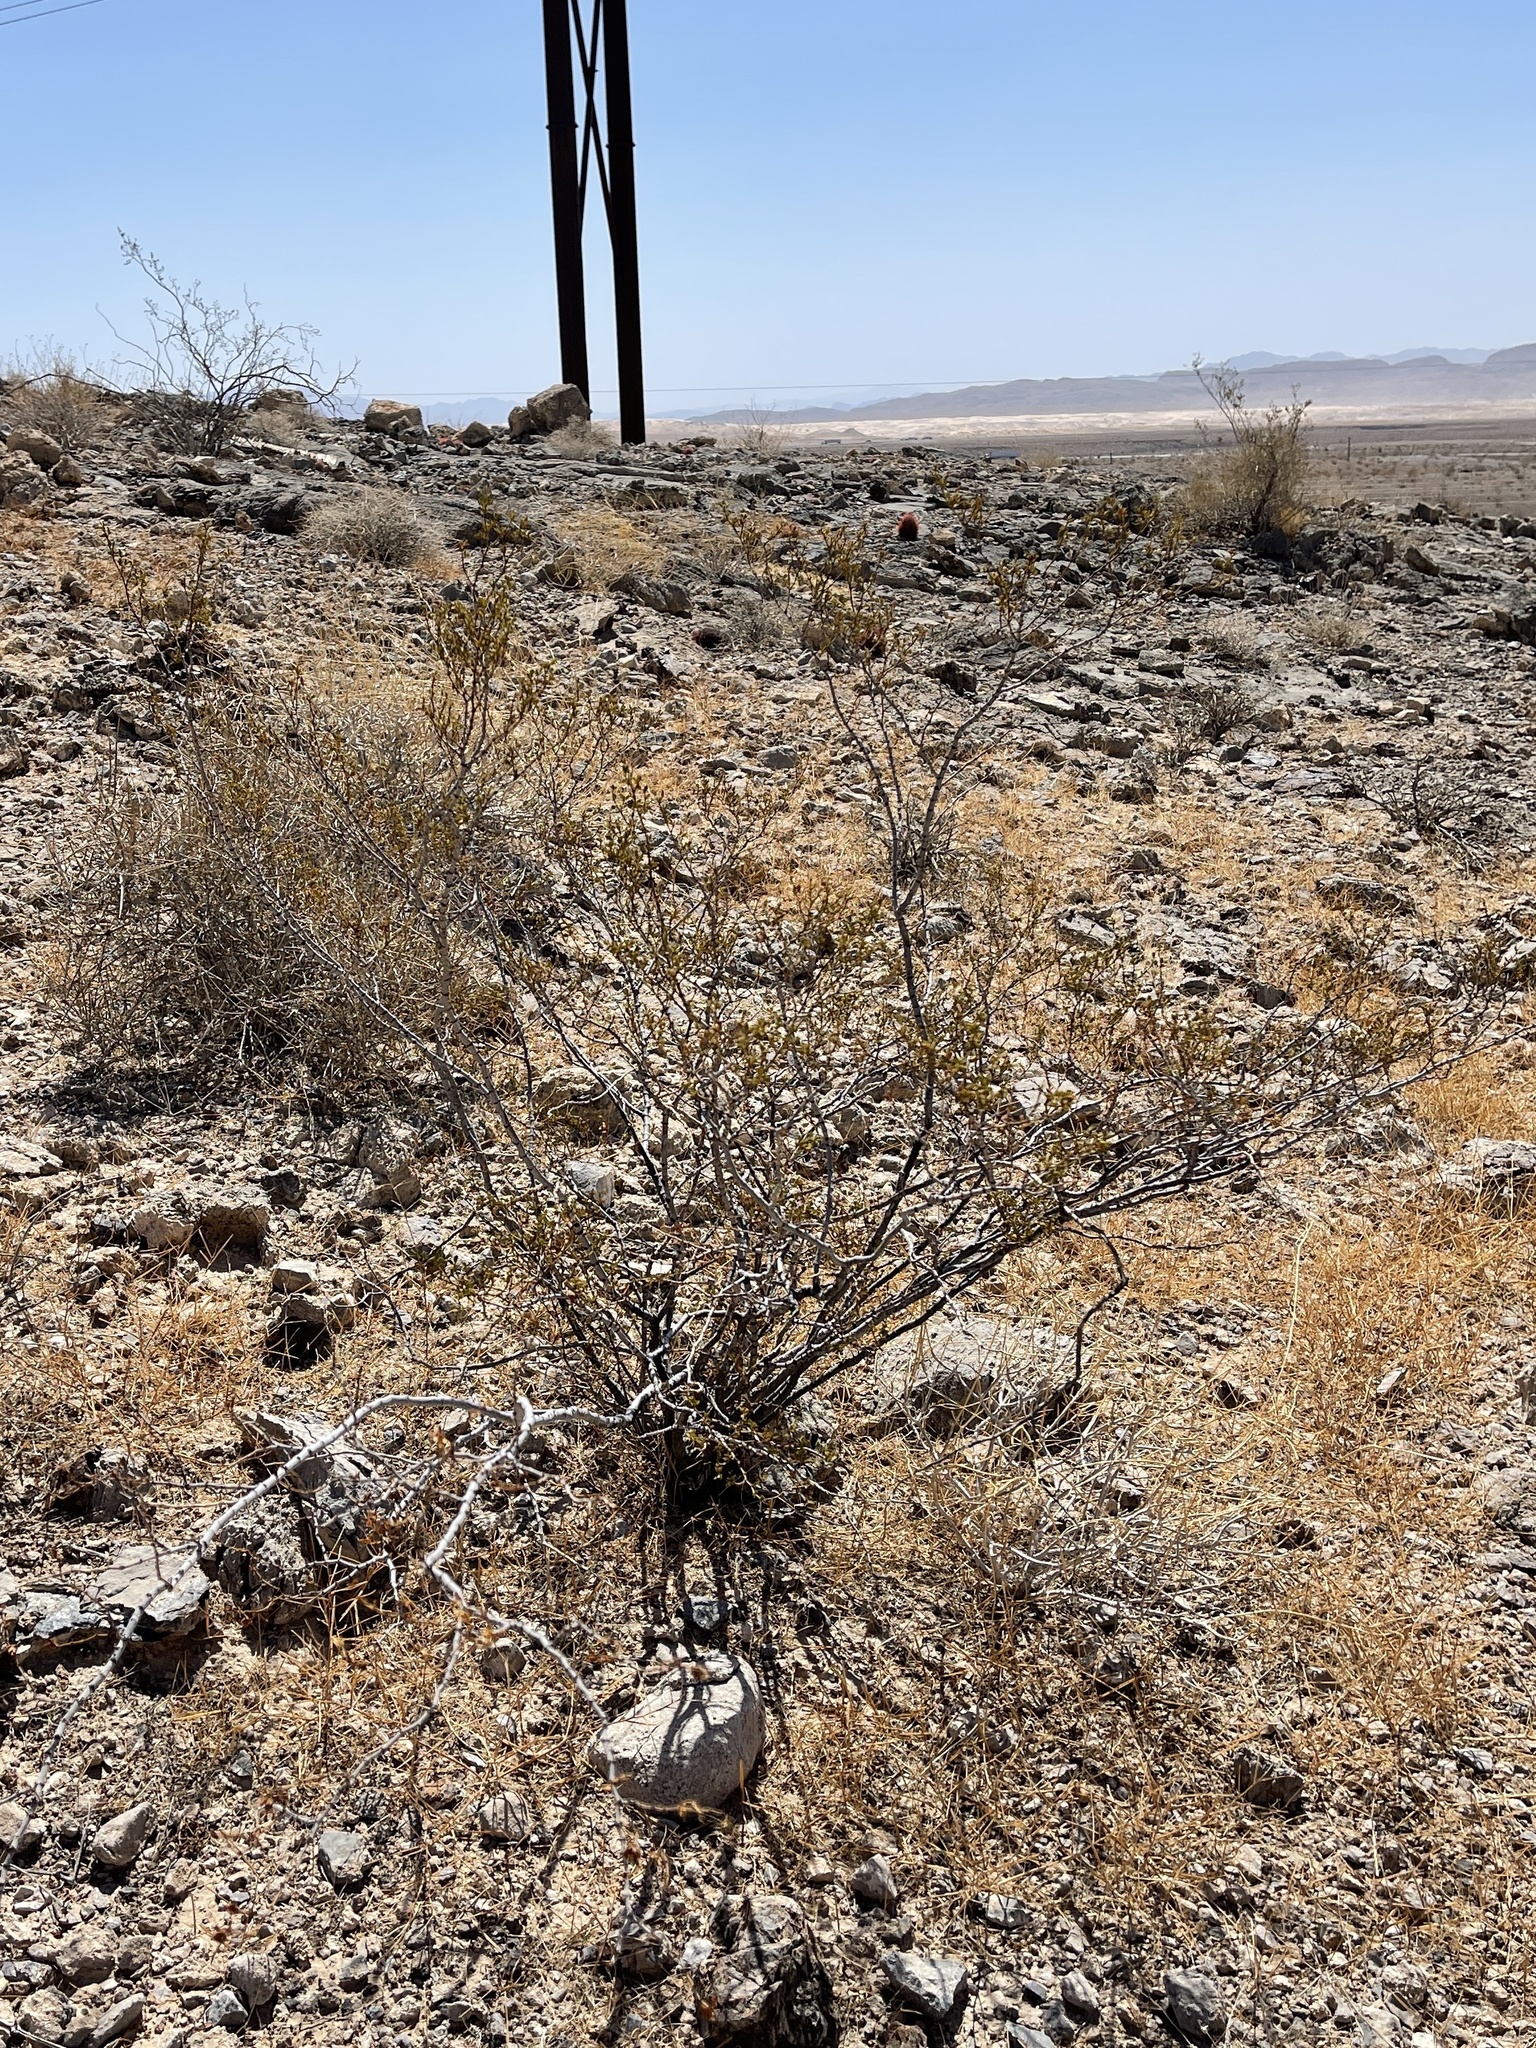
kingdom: Plantae
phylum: Tracheophyta
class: Magnoliopsida
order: Zygophyllales
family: Zygophyllaceae
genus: Larrea
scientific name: Larrea tridentata
